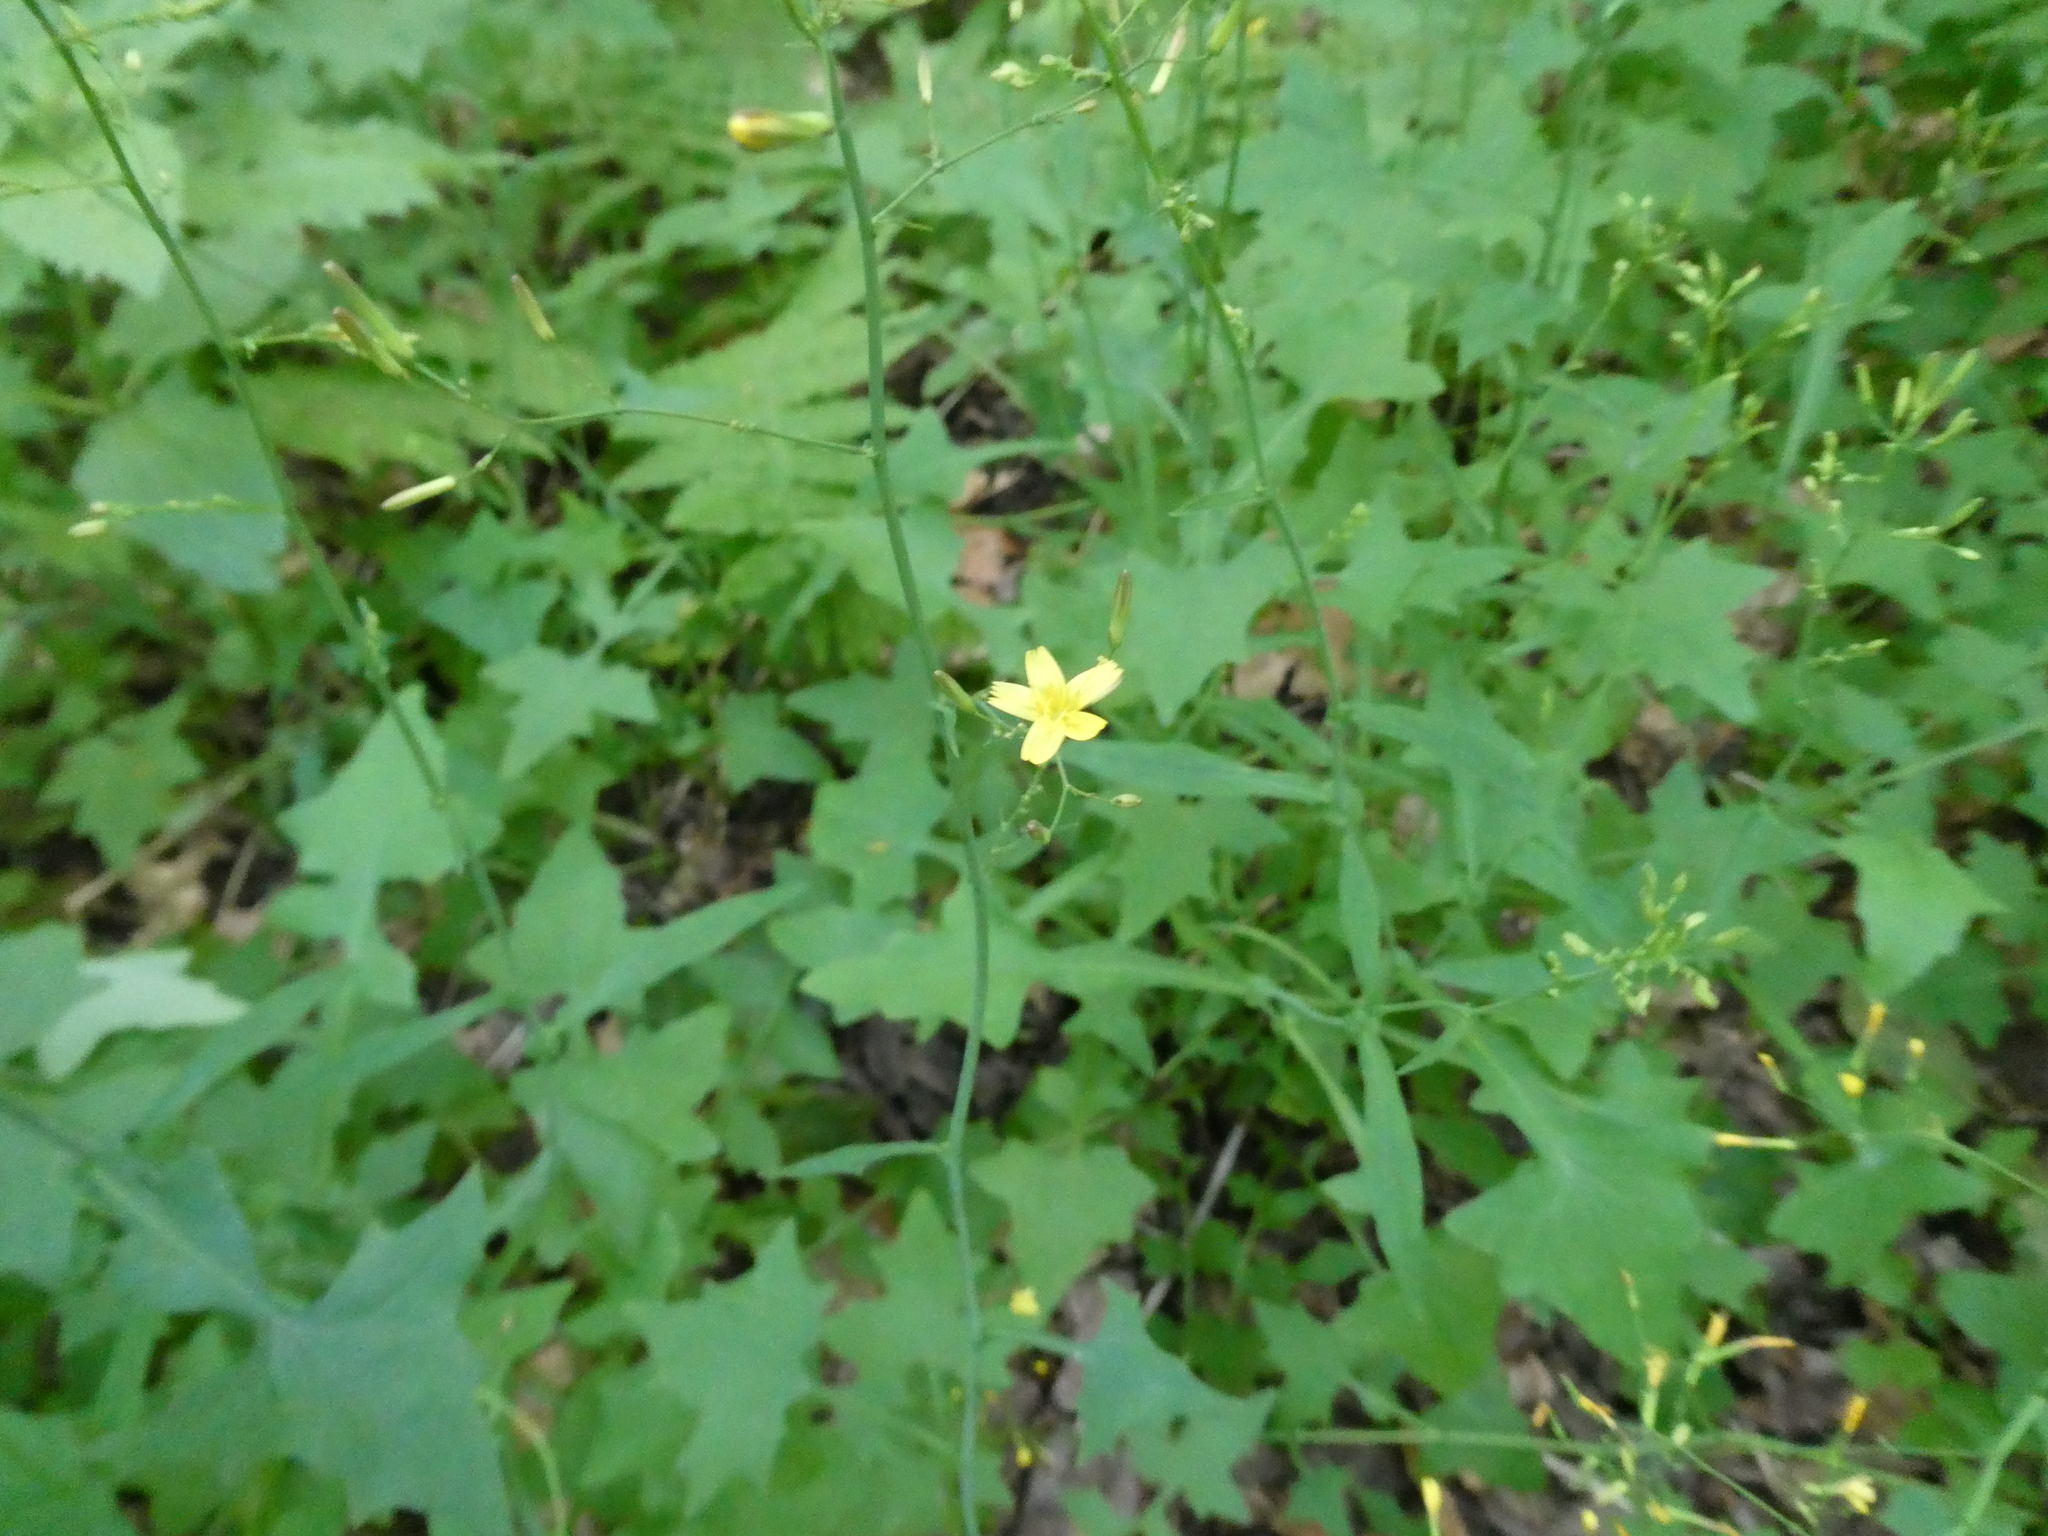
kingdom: Plantae
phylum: Tracheophyta
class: Magnoliopsida
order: Asterales
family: Asteraceae
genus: Mycelis
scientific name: Mycelis muralis
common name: Wall lettuce
